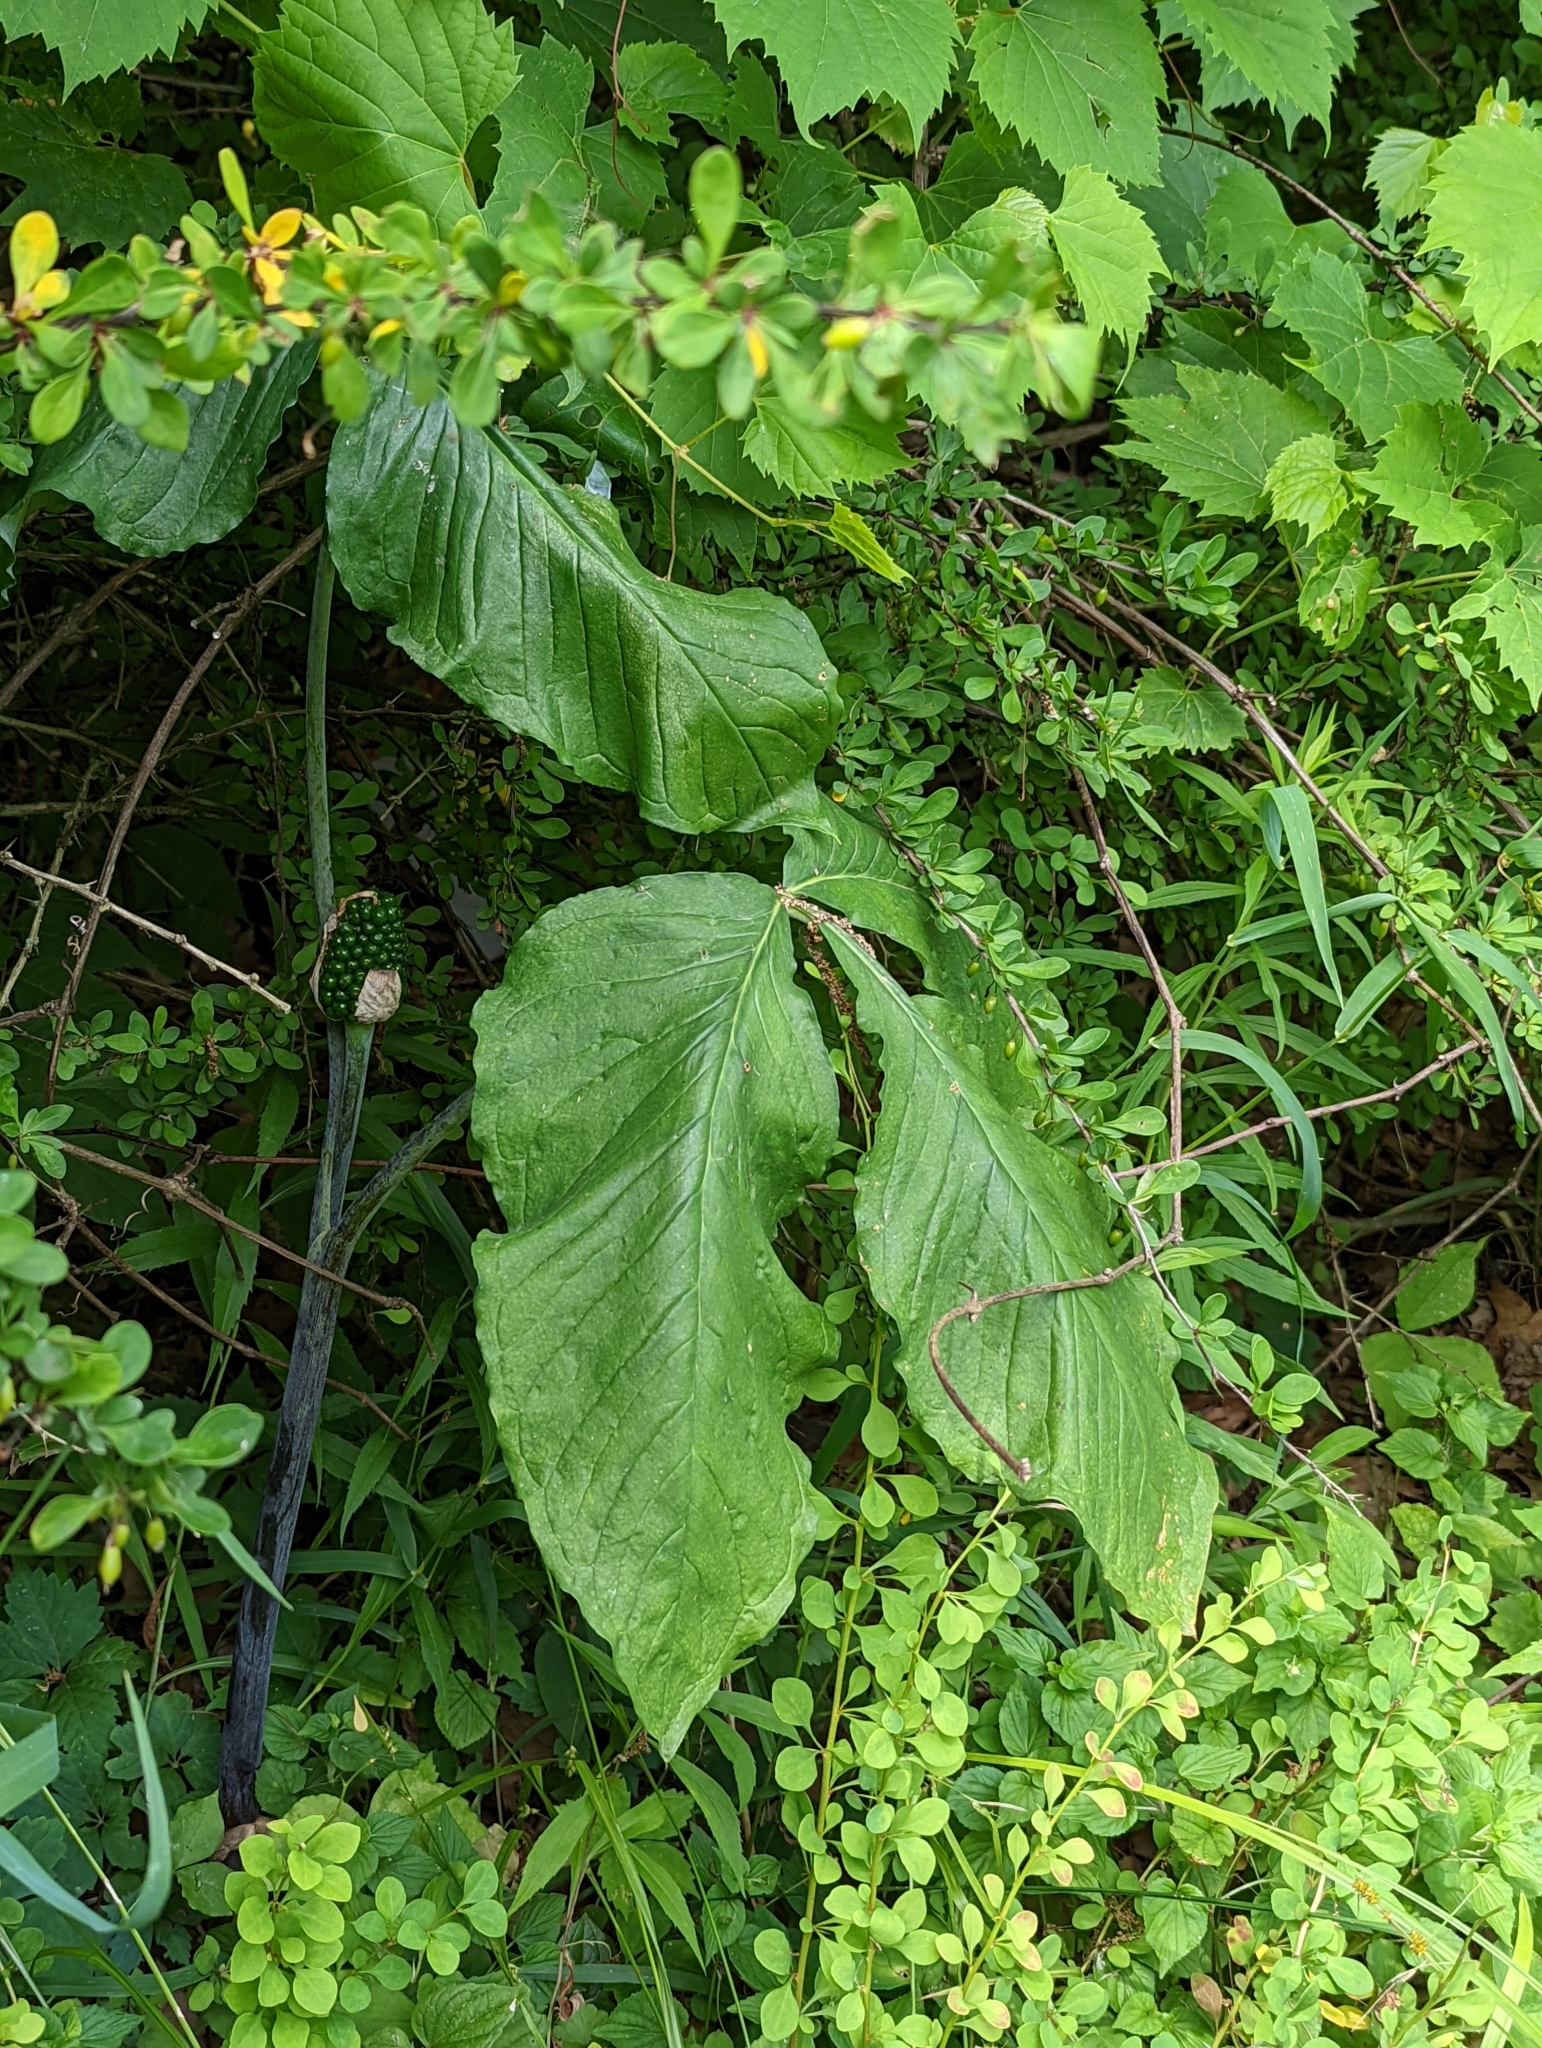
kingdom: Plantae
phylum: Tracheophyta
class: Liliopsida
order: Alismatales
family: Araceae
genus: Arisaema
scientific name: Arisaema triphyllum
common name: Jack-in-the-pulpit
